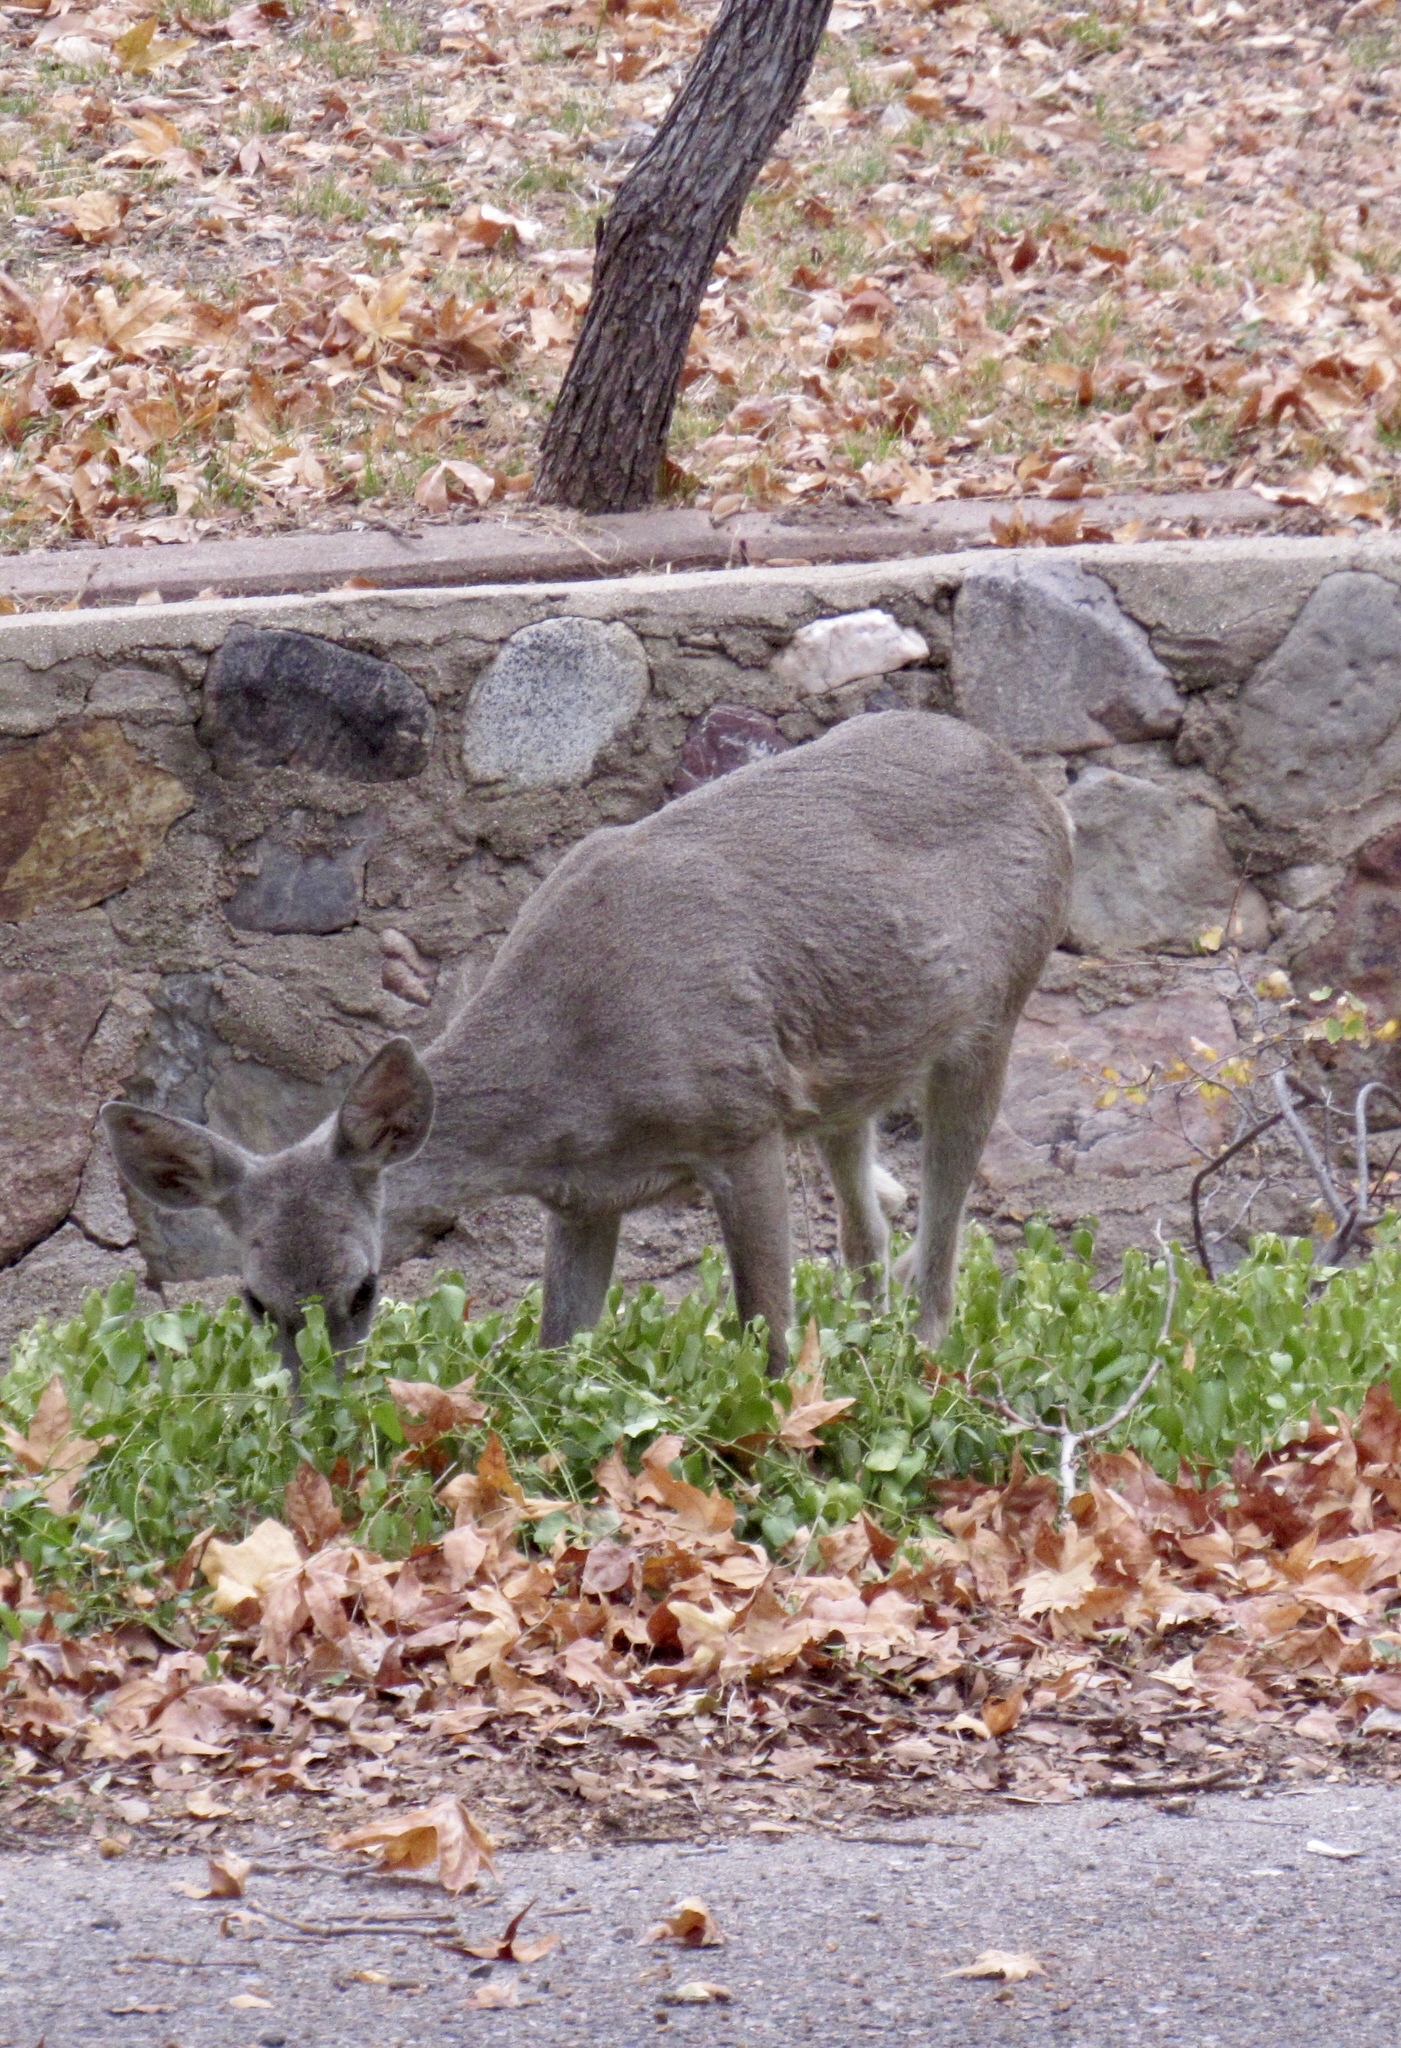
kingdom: Animalia
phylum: Chordata
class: Mammalia
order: Artiodactyla
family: Cervidae
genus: Odocoileus
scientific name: Odocoileus virginianus
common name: White-tailed deer
